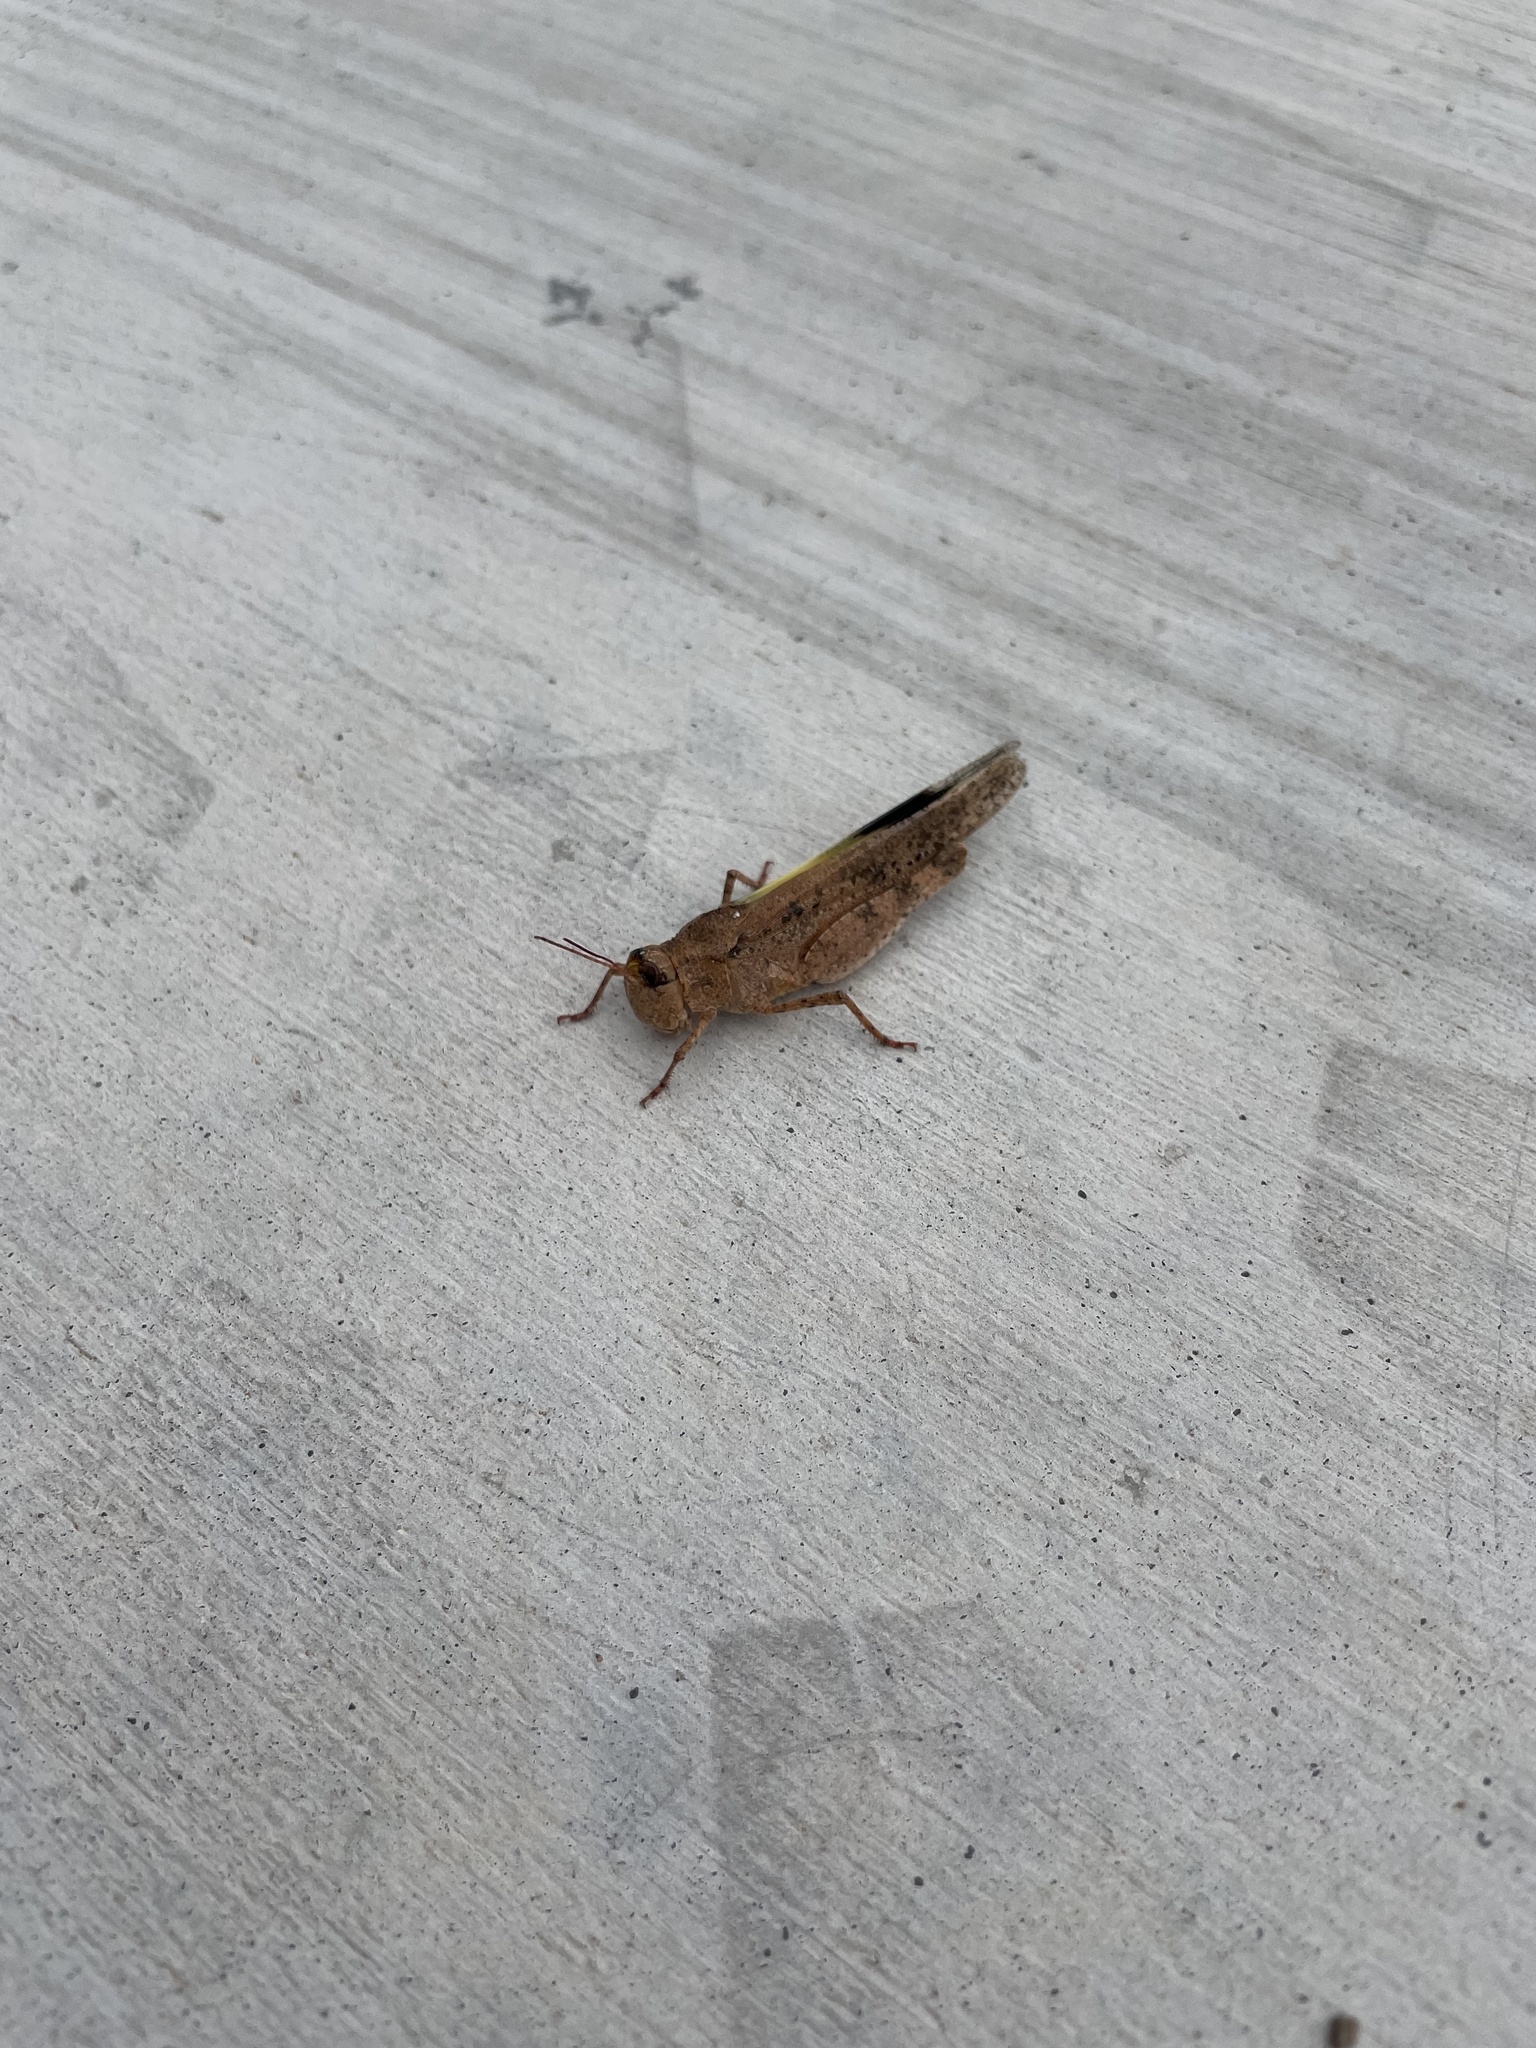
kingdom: Animalia
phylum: Arthropoda
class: Insecta
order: Orthoptera
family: Acrididae
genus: Spharagemon
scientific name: Spharagemon cristatum
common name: Ridgeback sand grasshopper
